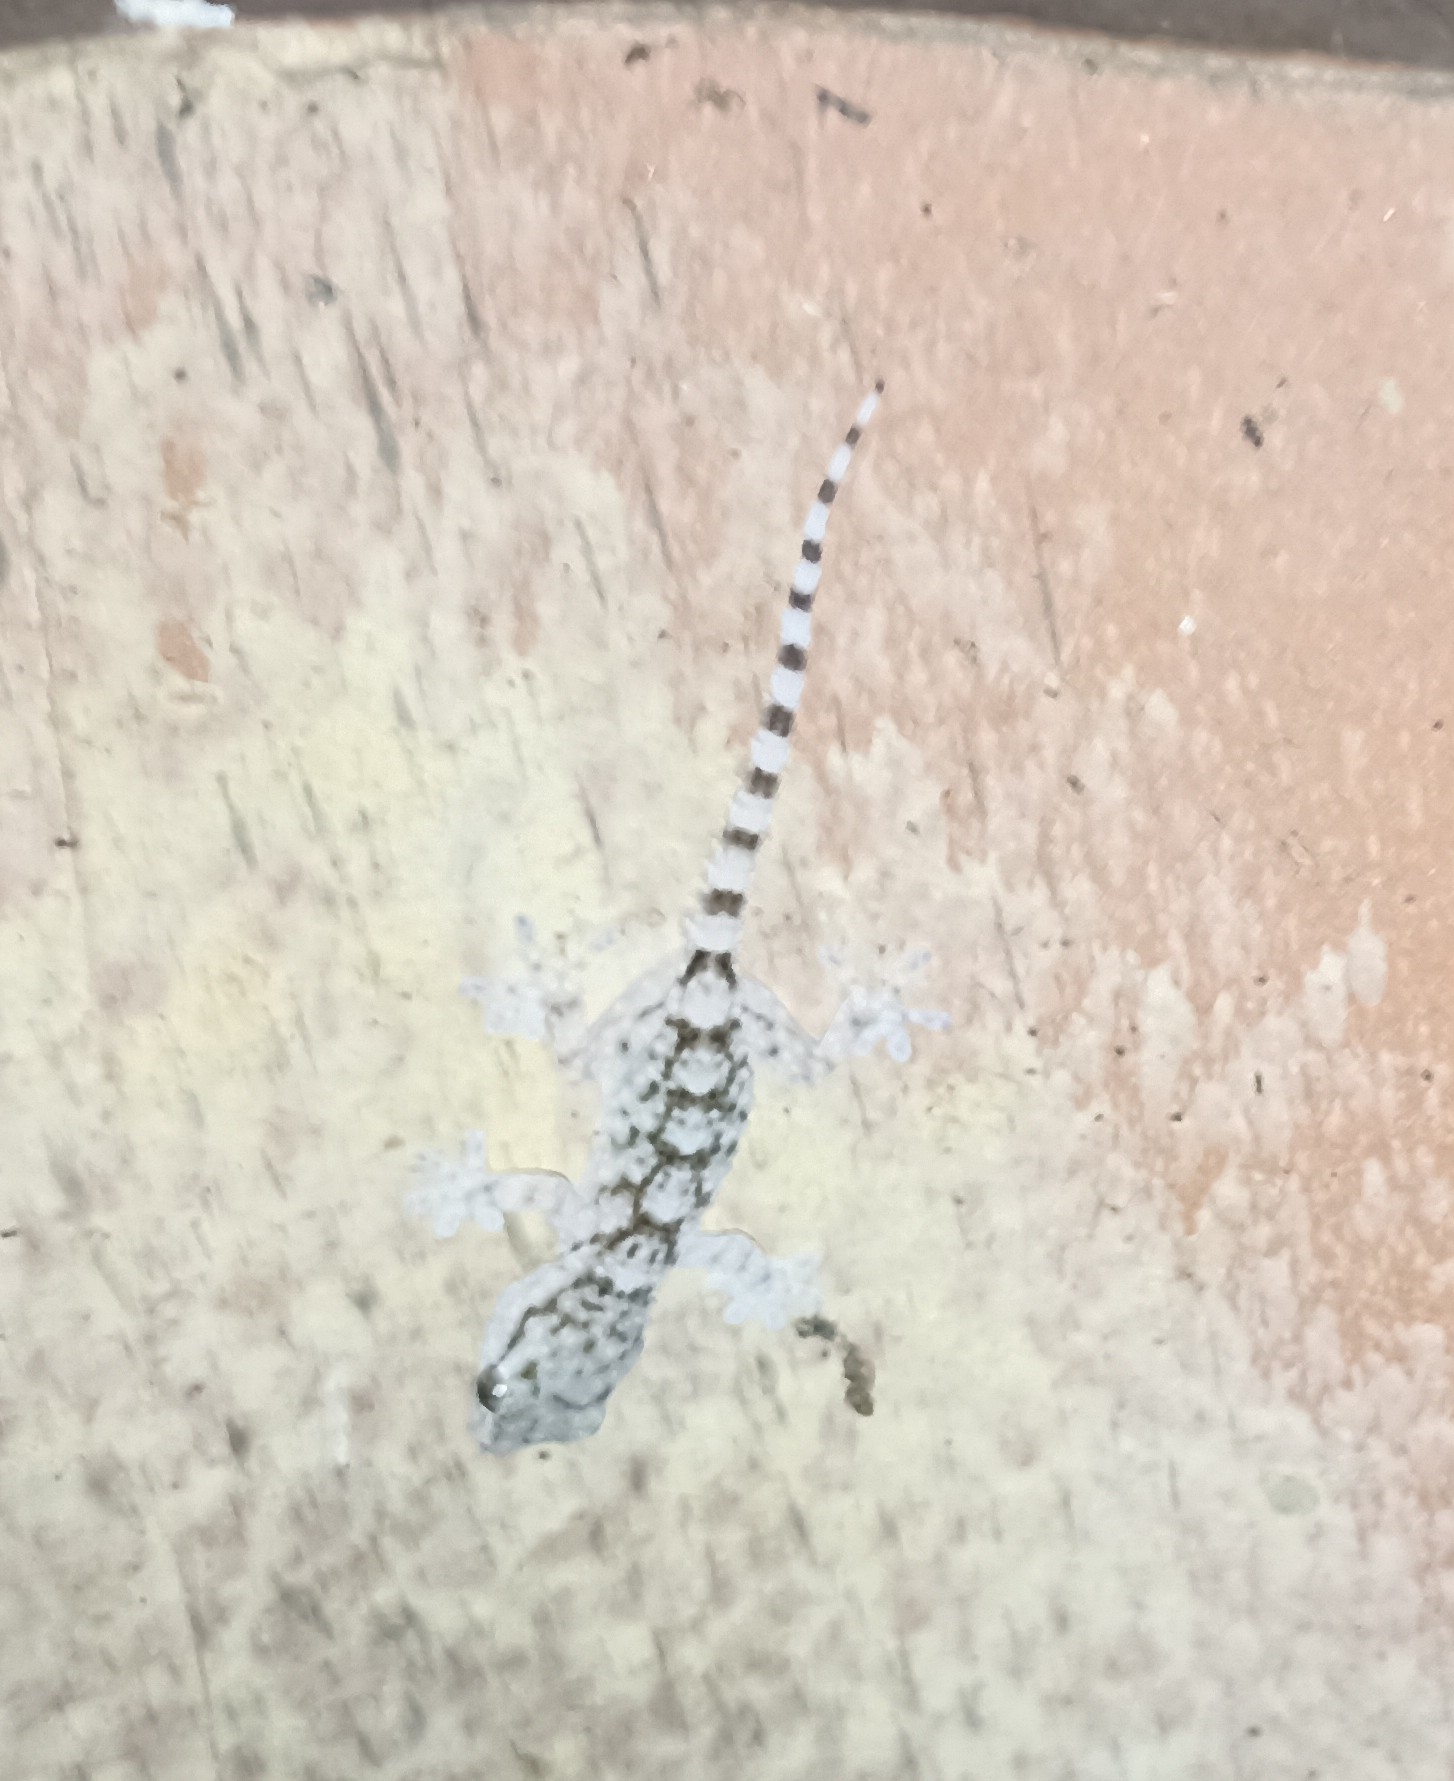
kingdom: Animalia
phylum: Chordata
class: Squamata
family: Phyllodactylidae
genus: Tarentola
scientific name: Tarentola mauritanica
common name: Moorish gecko
